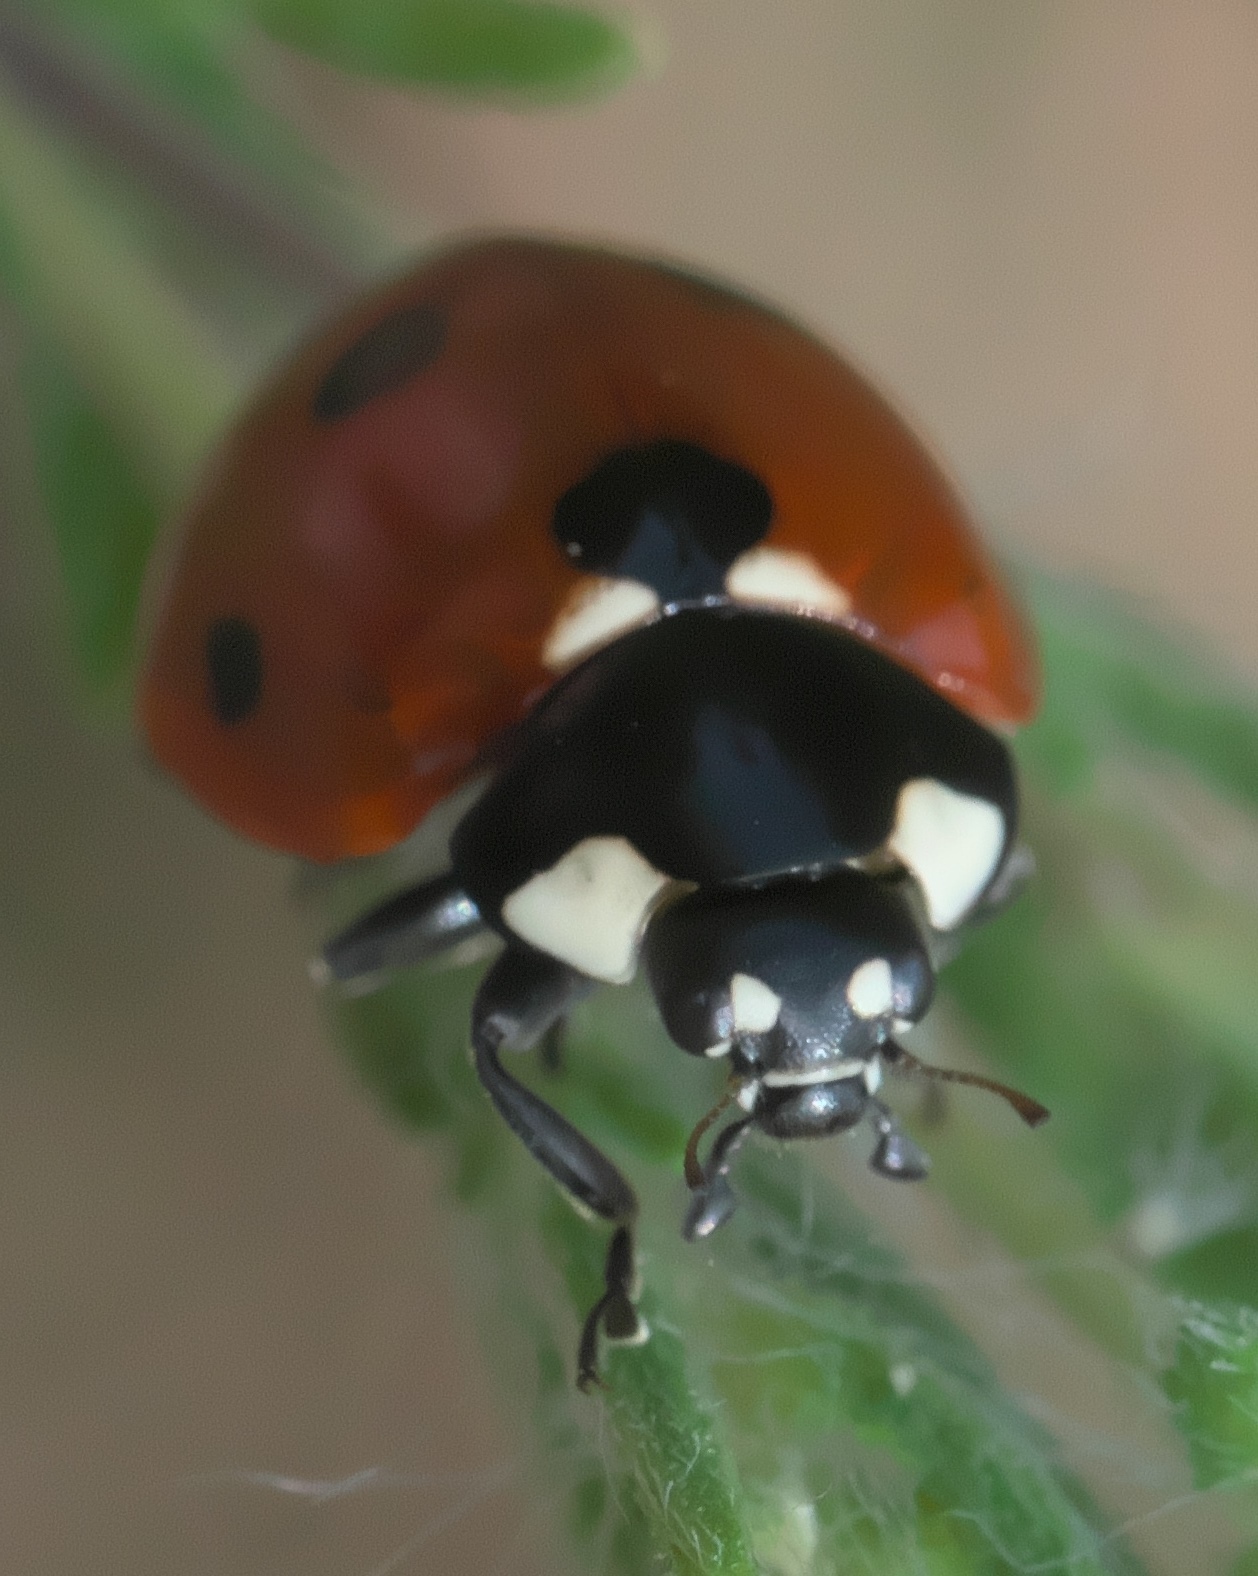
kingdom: Animalia
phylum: Arthropoda
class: Insecta
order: Coleoptera
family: Coccinellidae
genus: Coccinella
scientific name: Coccinella septempunctata
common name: Sevenspotted lady beetle
